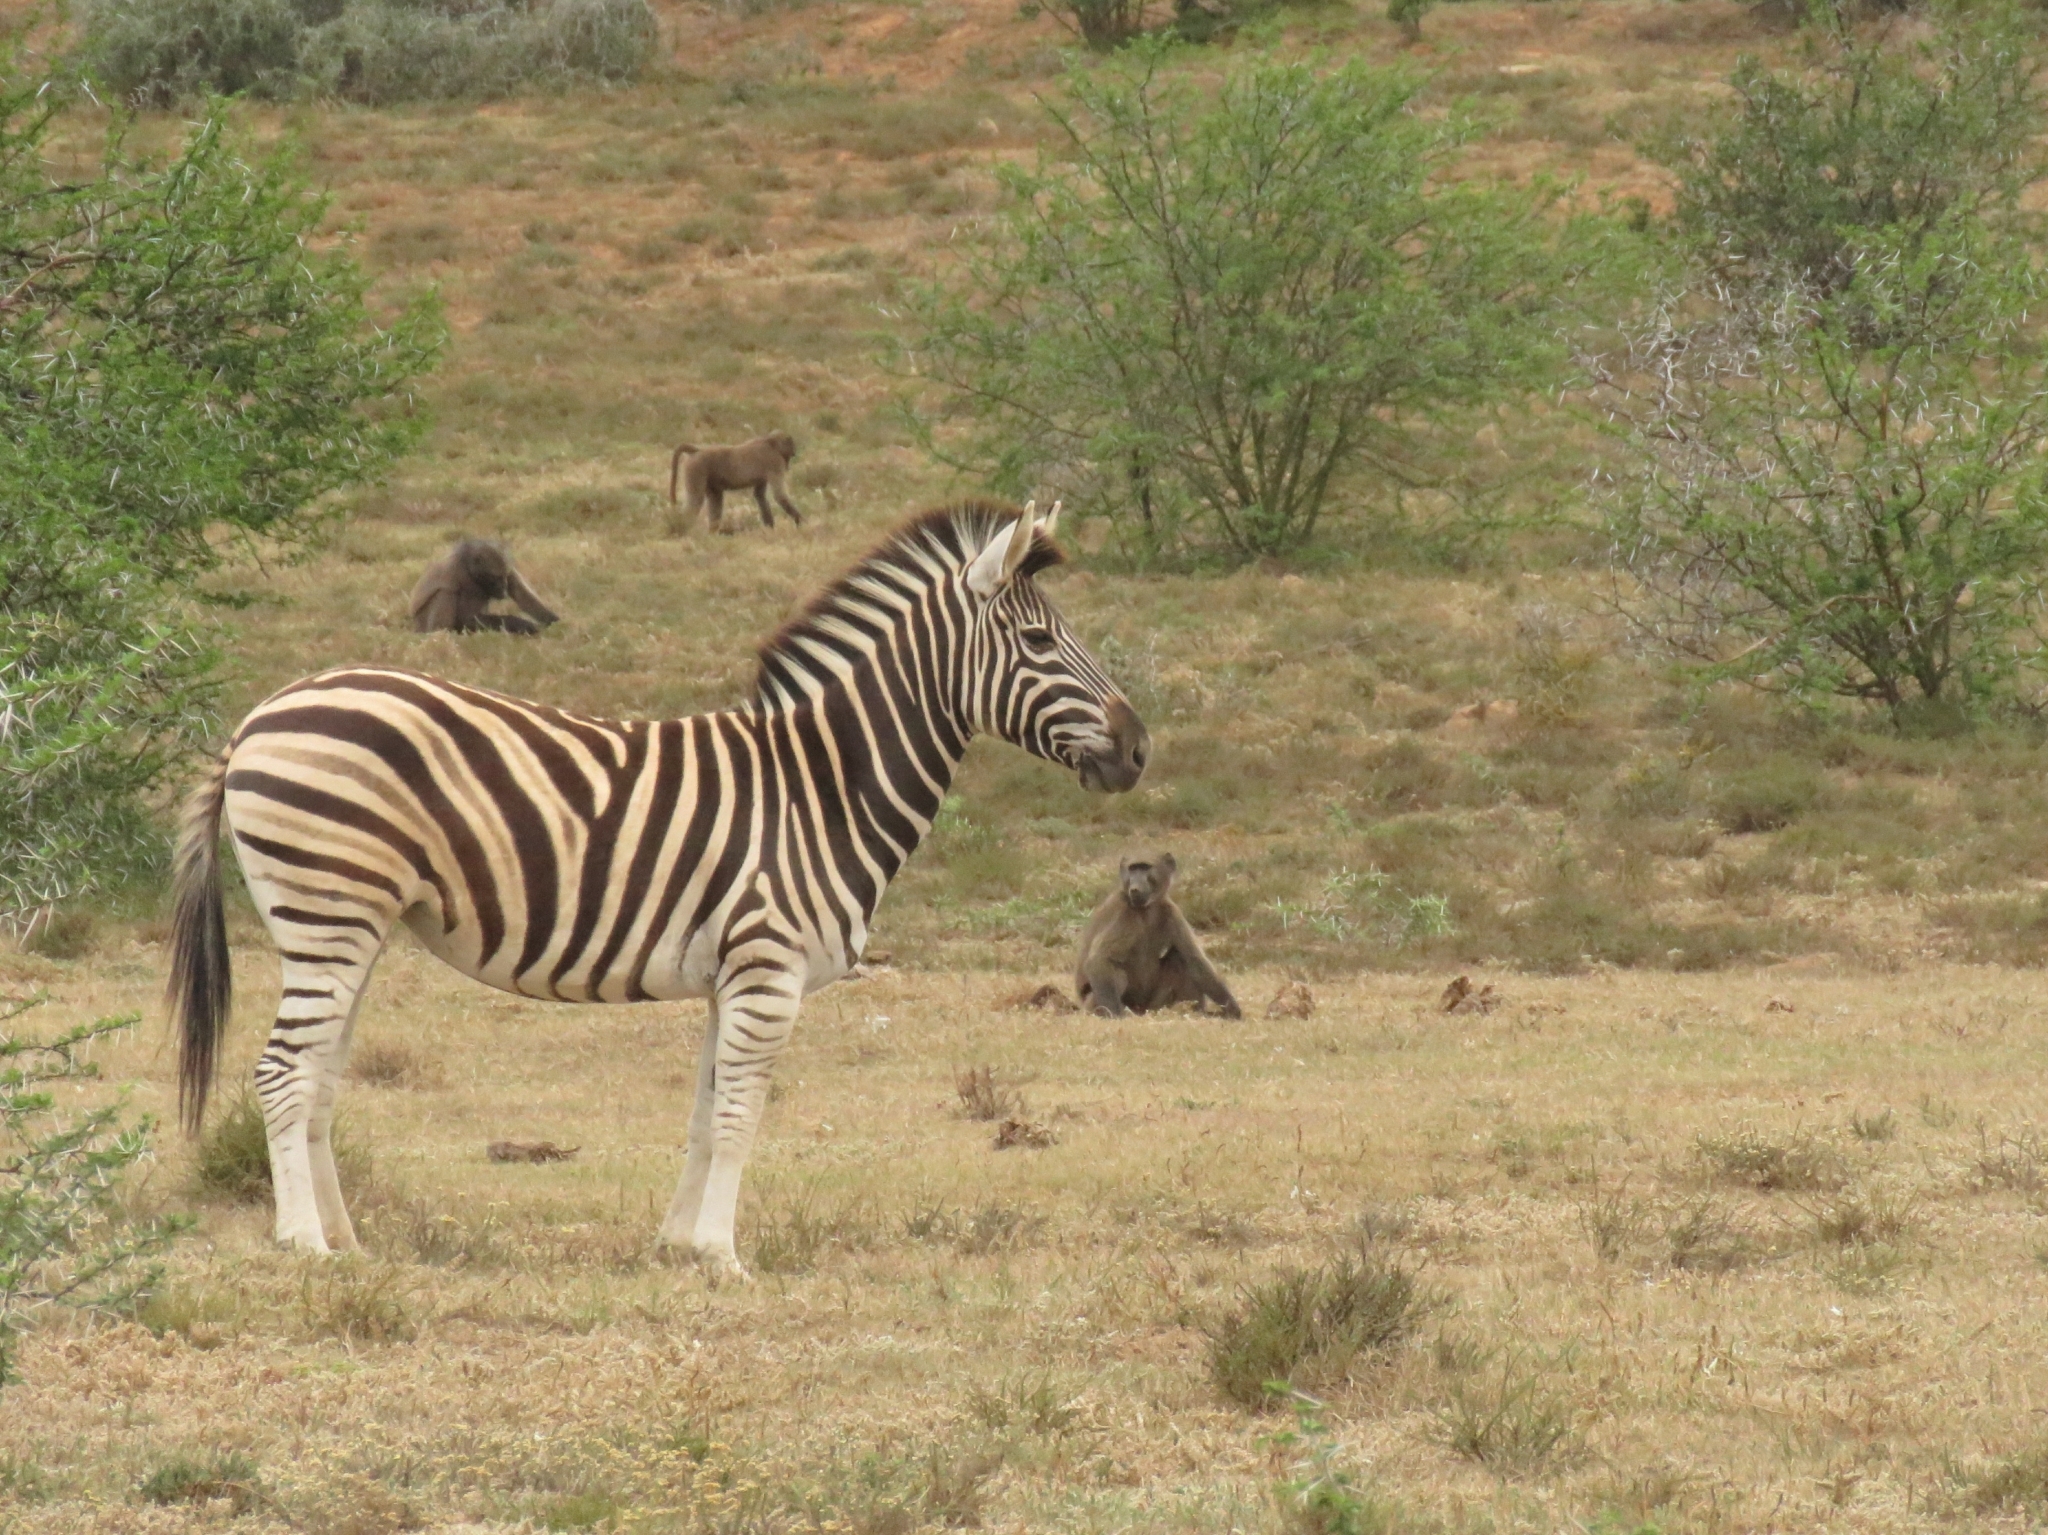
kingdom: Animalia
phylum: Chordata
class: Mammalia
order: Perissodactyla
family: Equidae
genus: Equus
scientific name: Equus quagga
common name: Plains zebra
